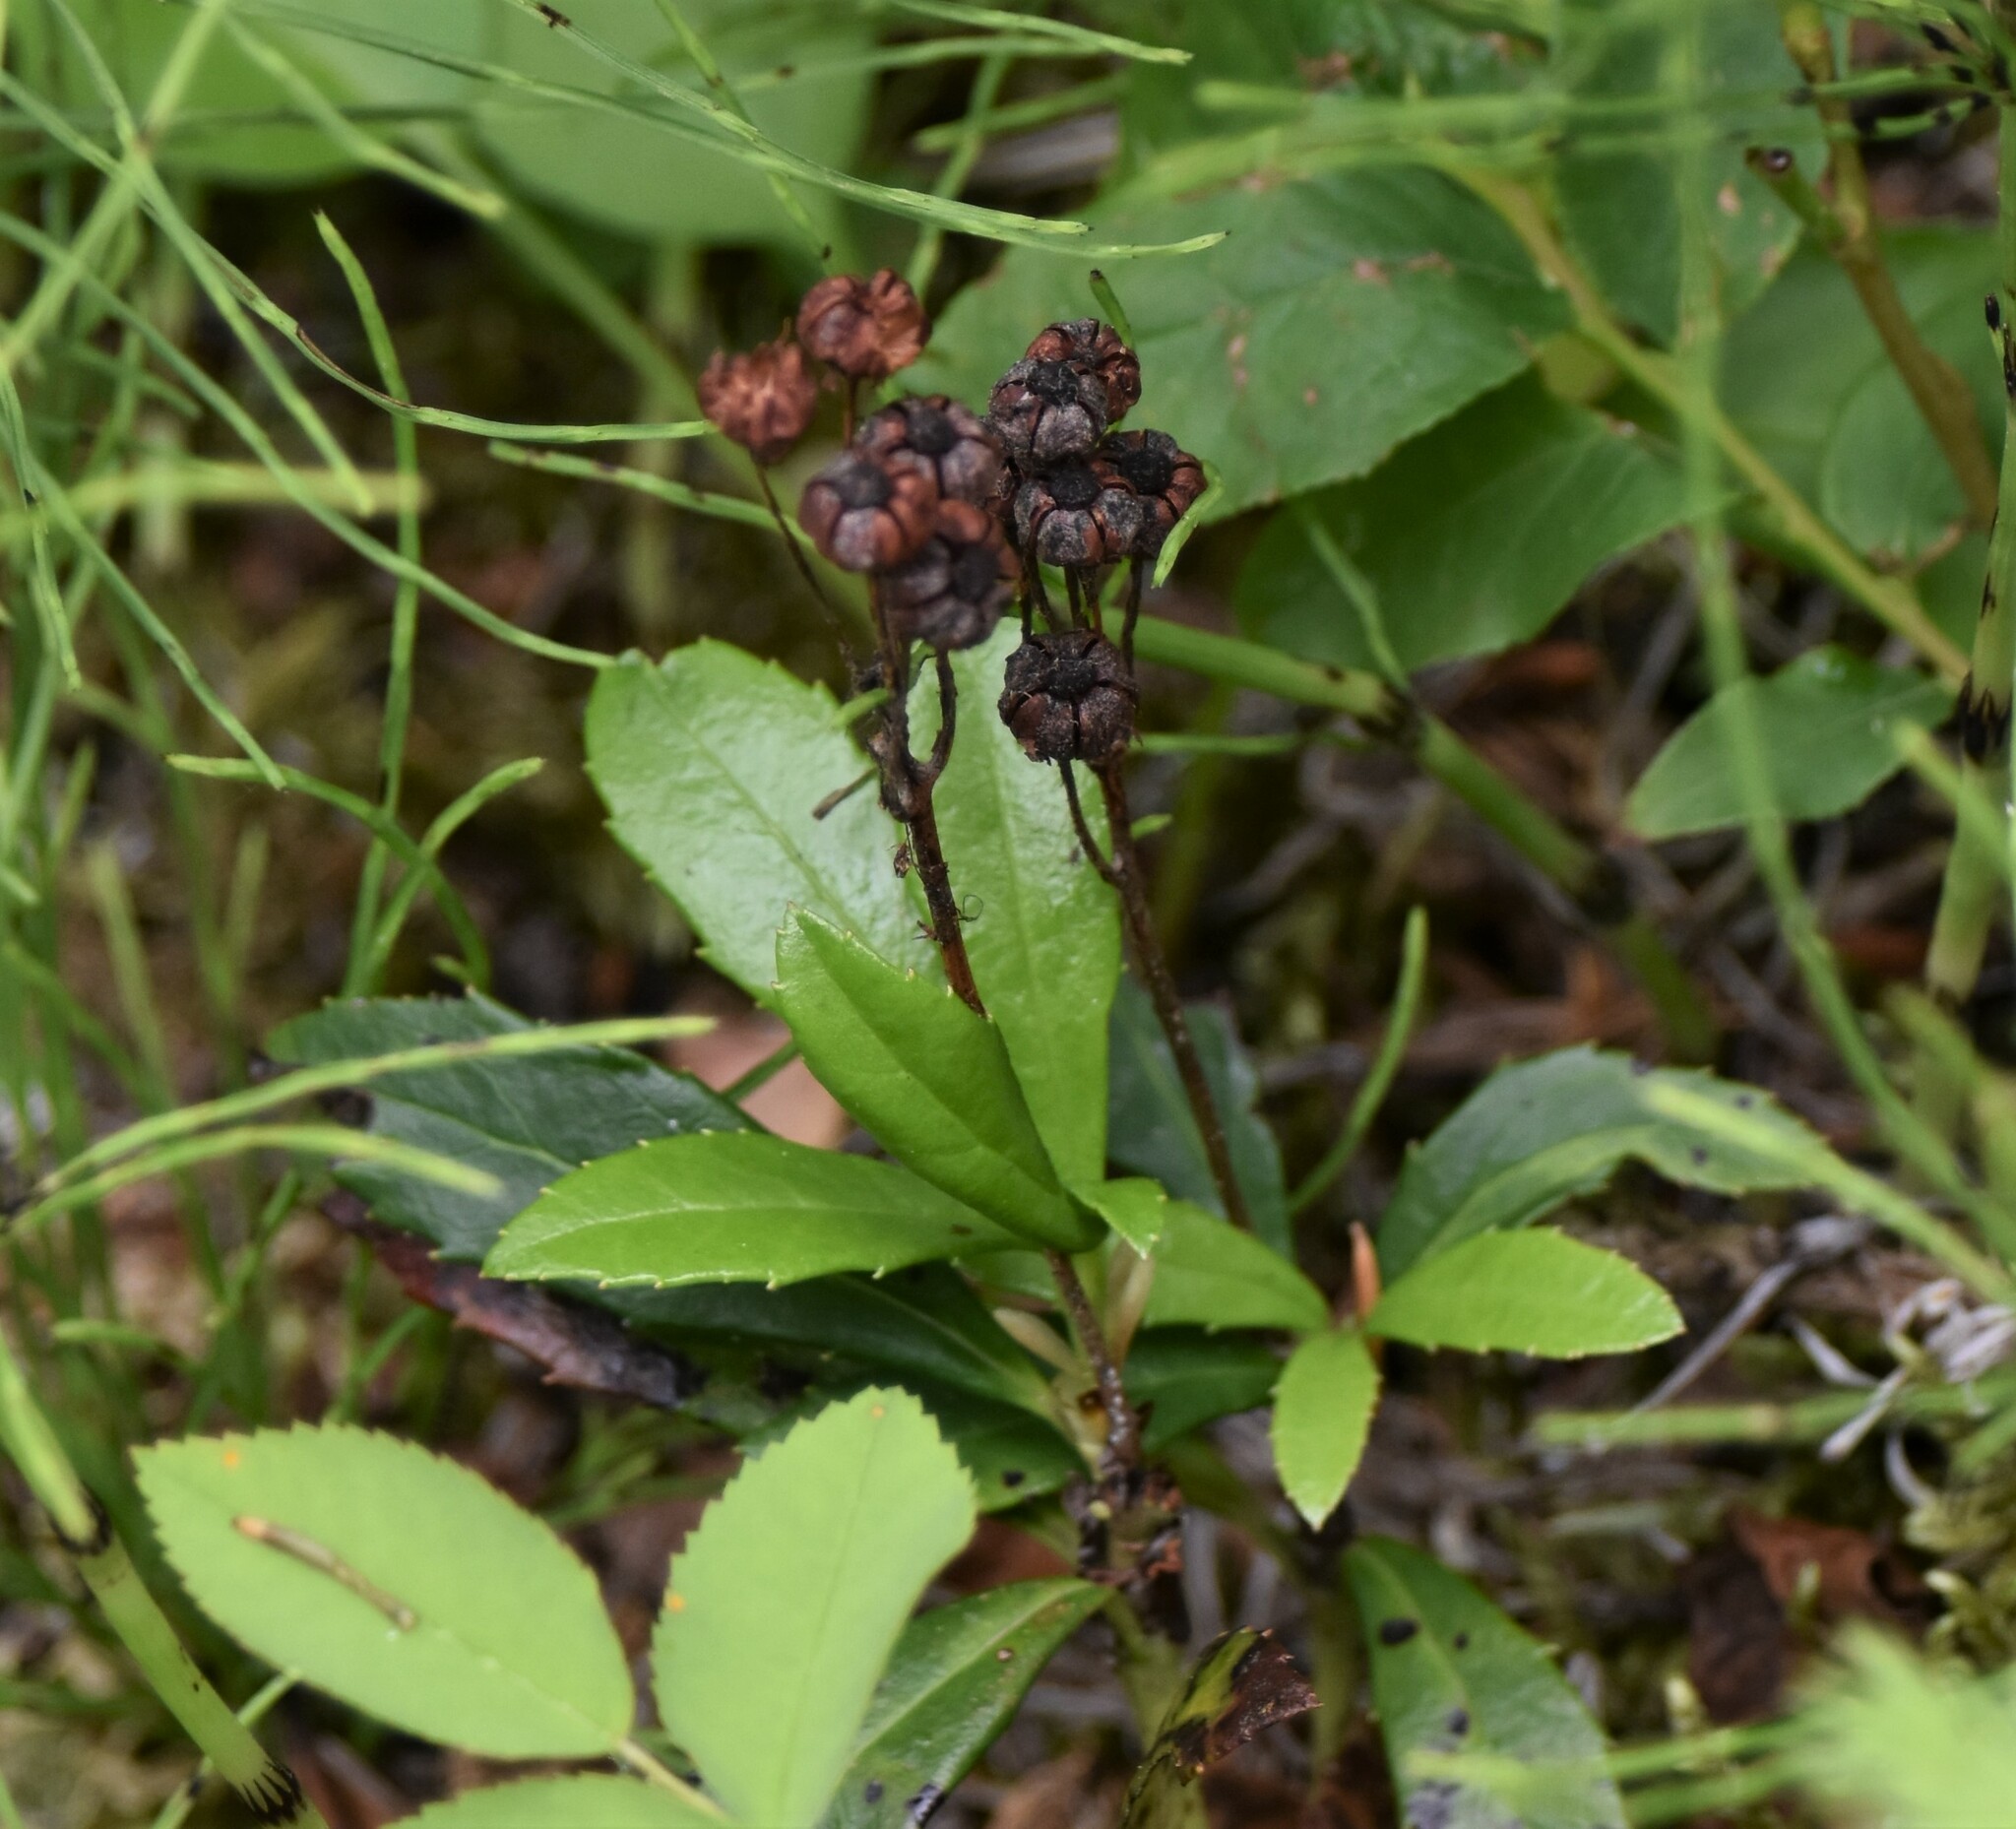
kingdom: Plantae
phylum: Tracheophyta
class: Magnoliopsida
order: Ericales
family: Ericaceae
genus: Chimaphila
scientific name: Chimaphila umbellata
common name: Pipsissewa
